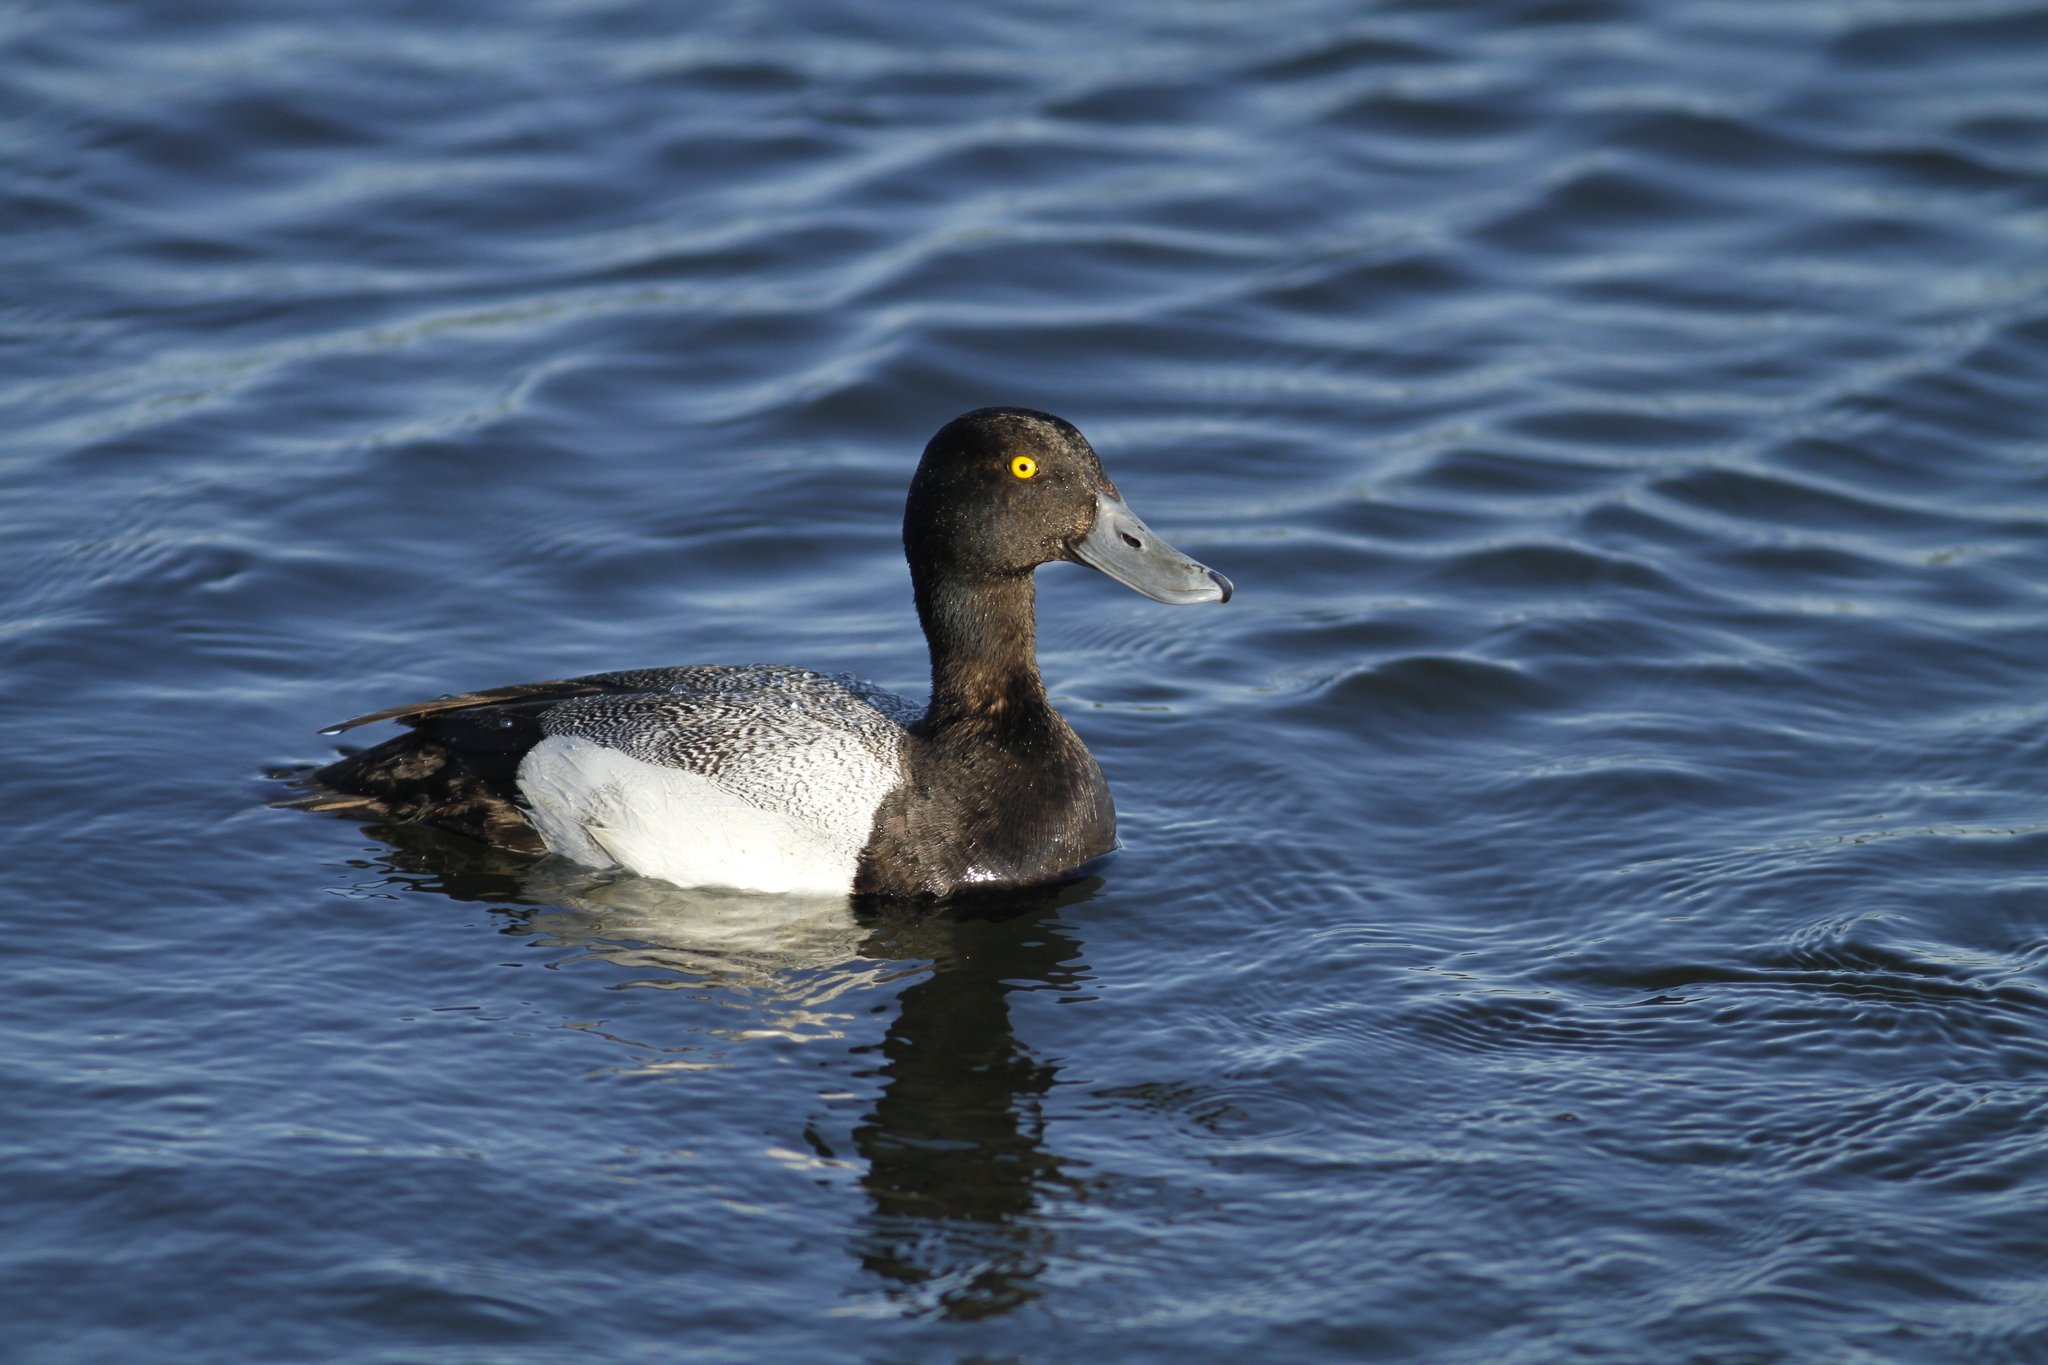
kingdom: Animalia
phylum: Chordata
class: Aves
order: Anseriformes
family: Anatidae
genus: Aythya
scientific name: Aythya marila
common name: Greater scaup
